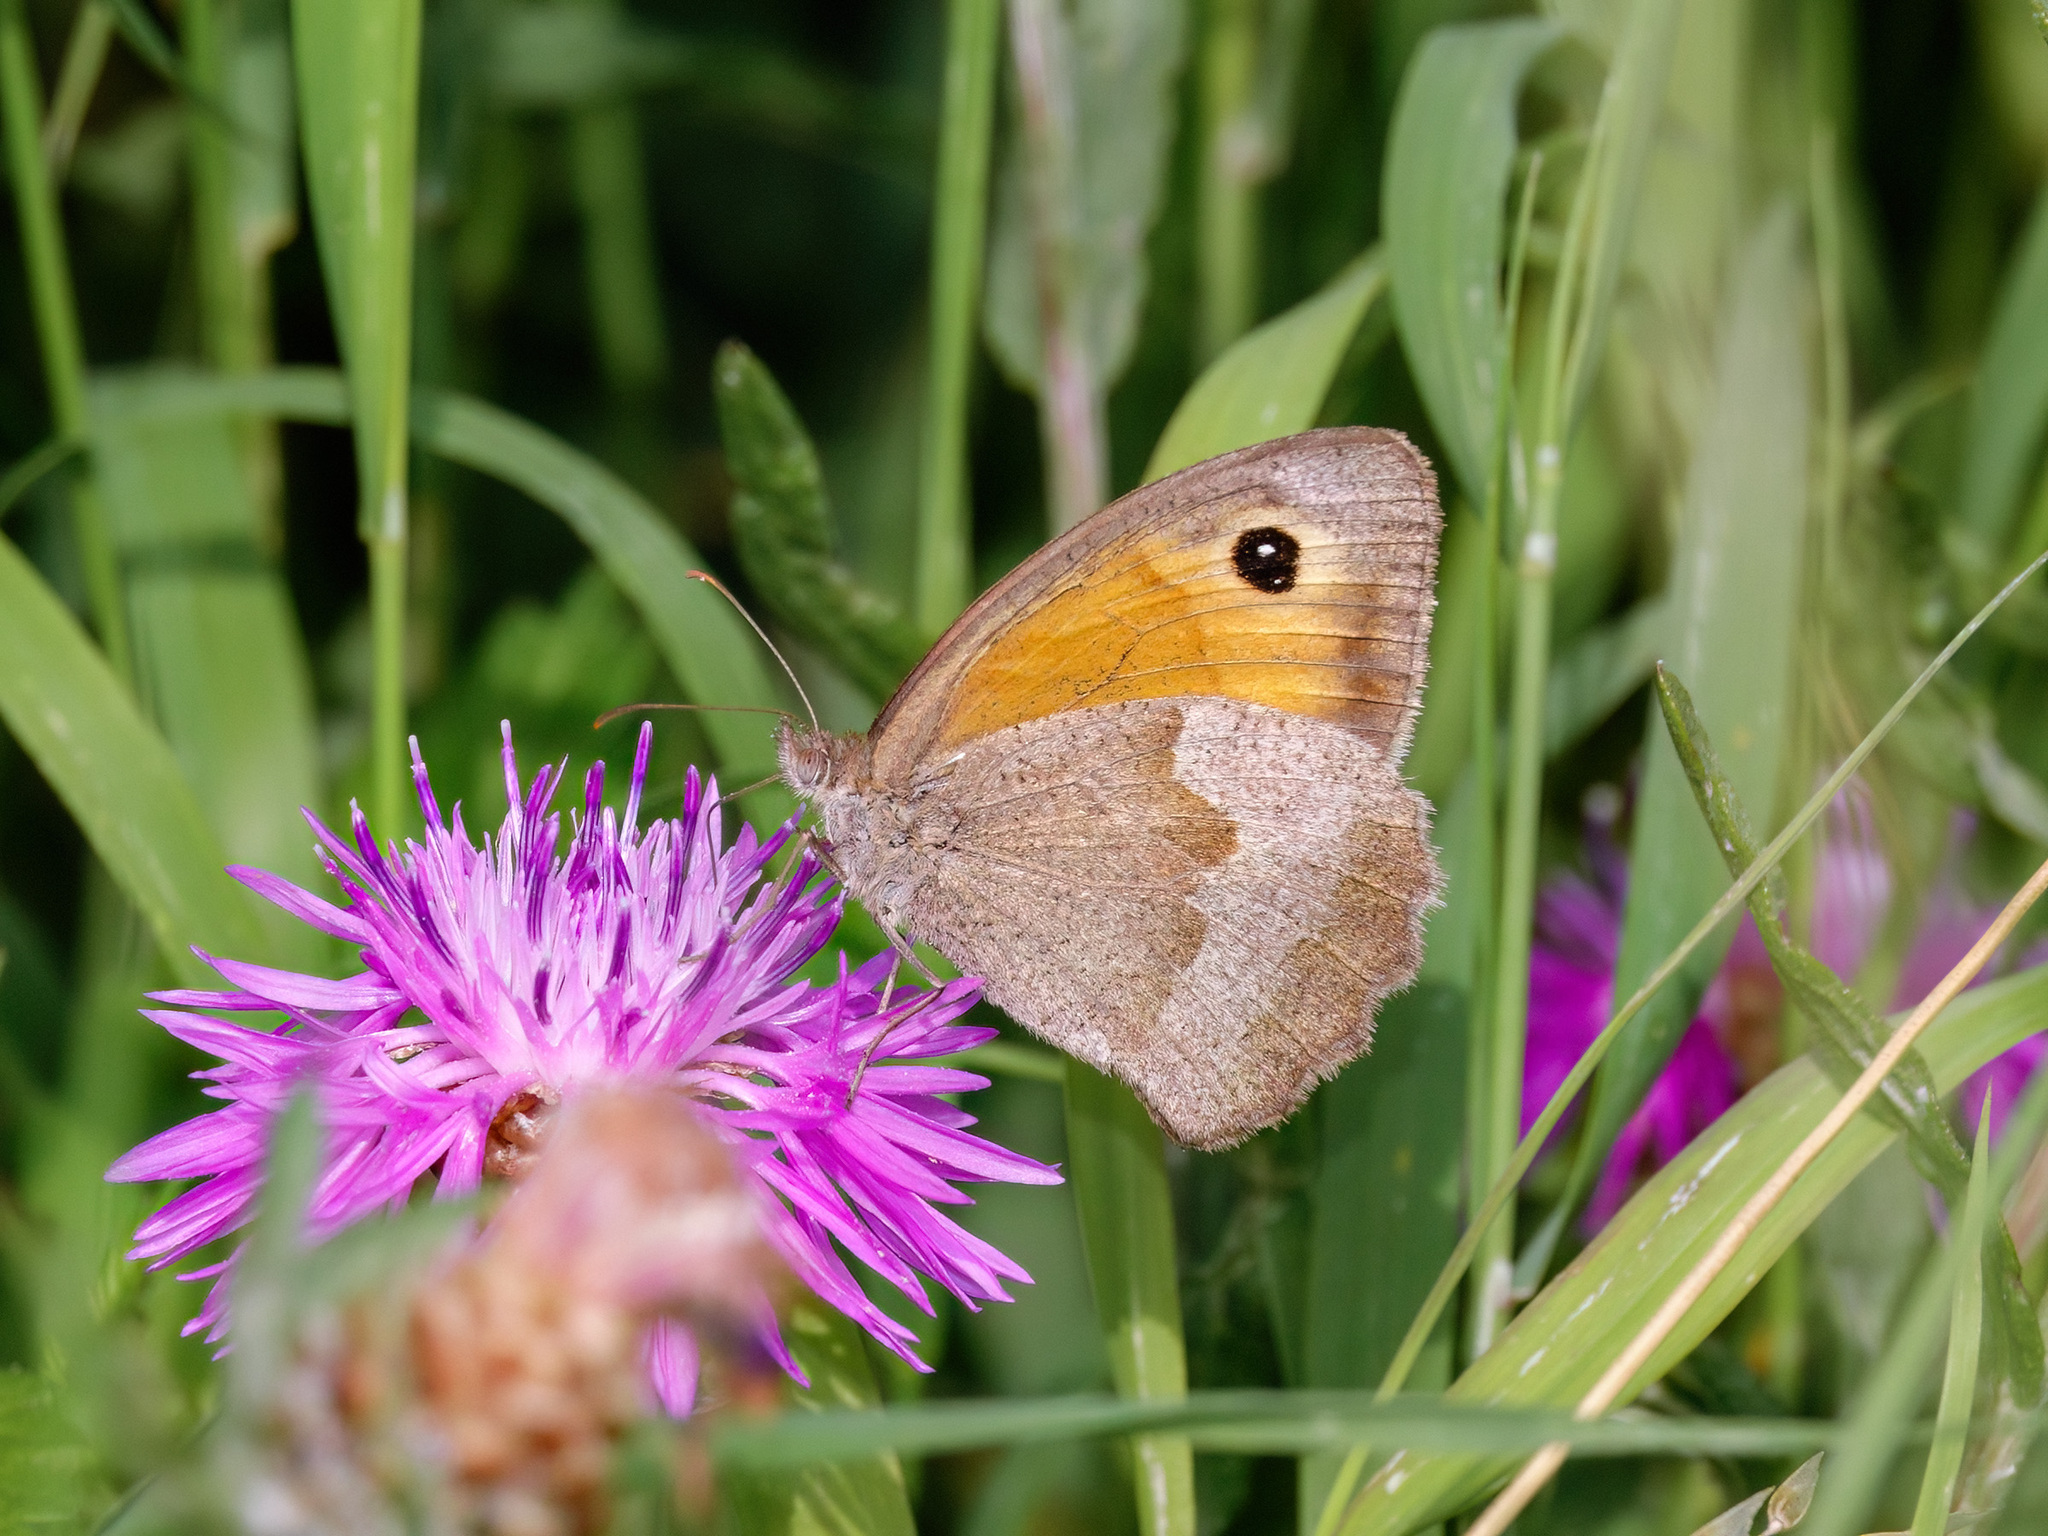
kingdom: Animalia
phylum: Arthropoda
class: Insecta
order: Lepidoptera
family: Nymphalidae
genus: Maniola
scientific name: Maniola jurtina
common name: Meadow brown
